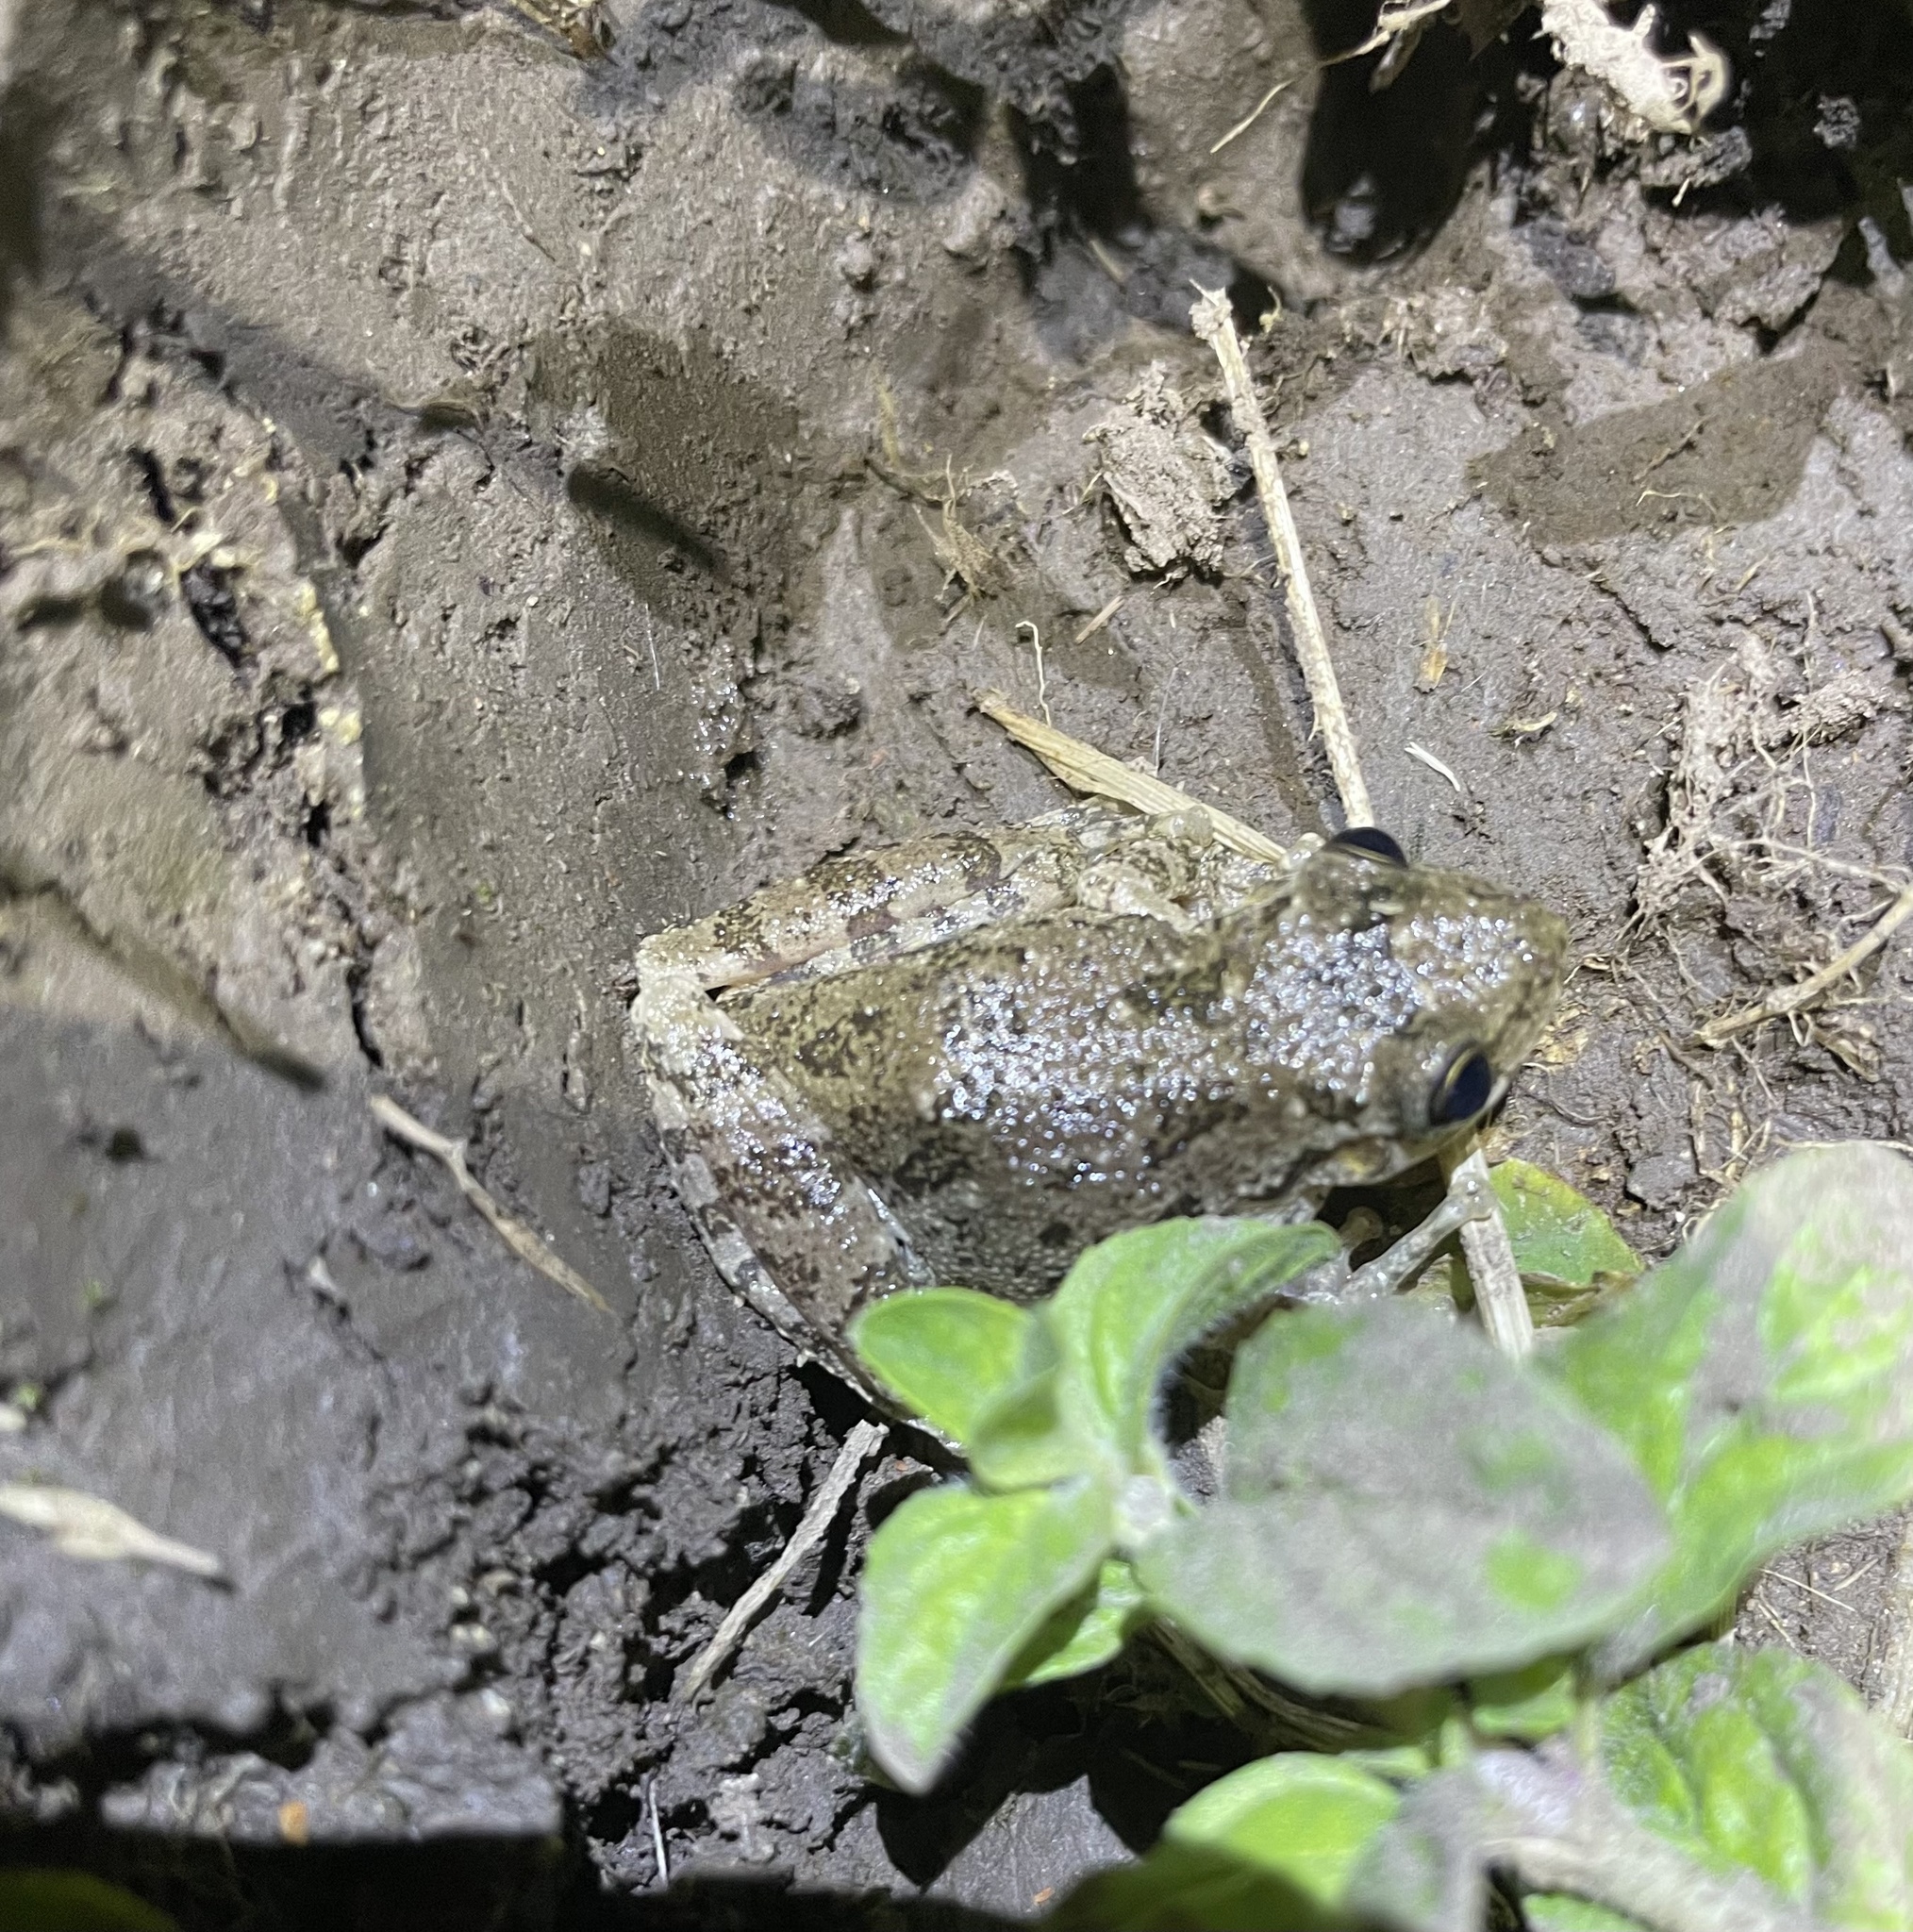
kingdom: Animalia
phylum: Chordata
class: Amphibia
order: Anura
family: Hylidae
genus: Scinax
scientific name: Scinax granulatus
